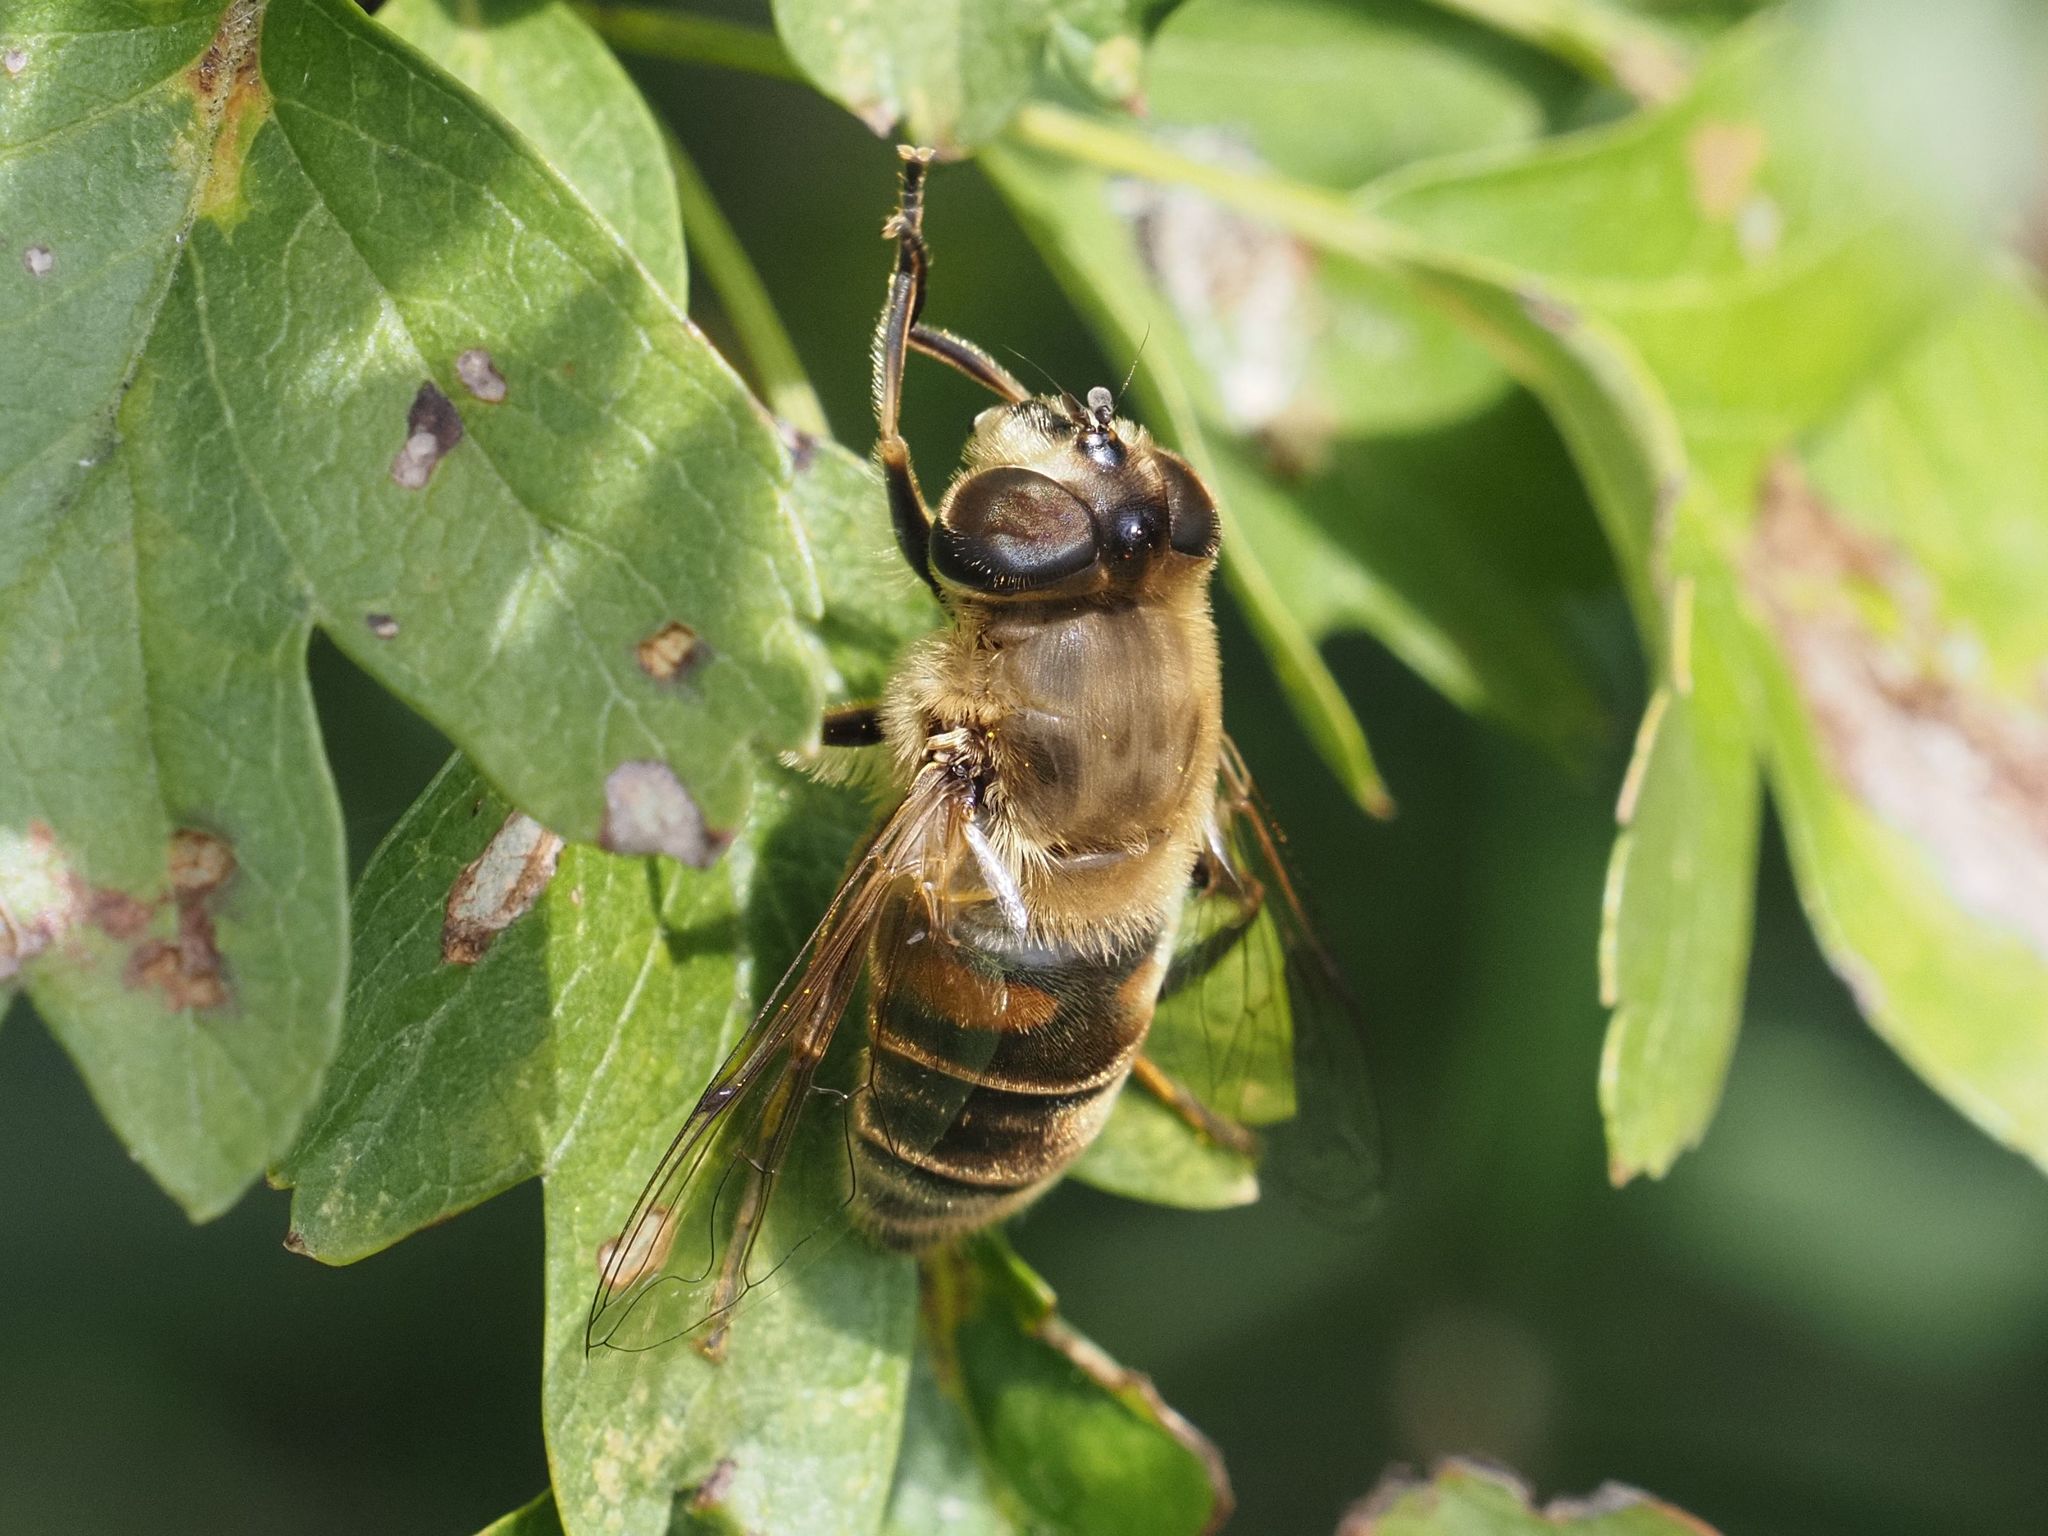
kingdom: Animalia
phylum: Arthropoda
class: Insecta
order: Diptera
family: Syrphidae
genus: Eristalis
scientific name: Eristalis tenax
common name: Drone fly
